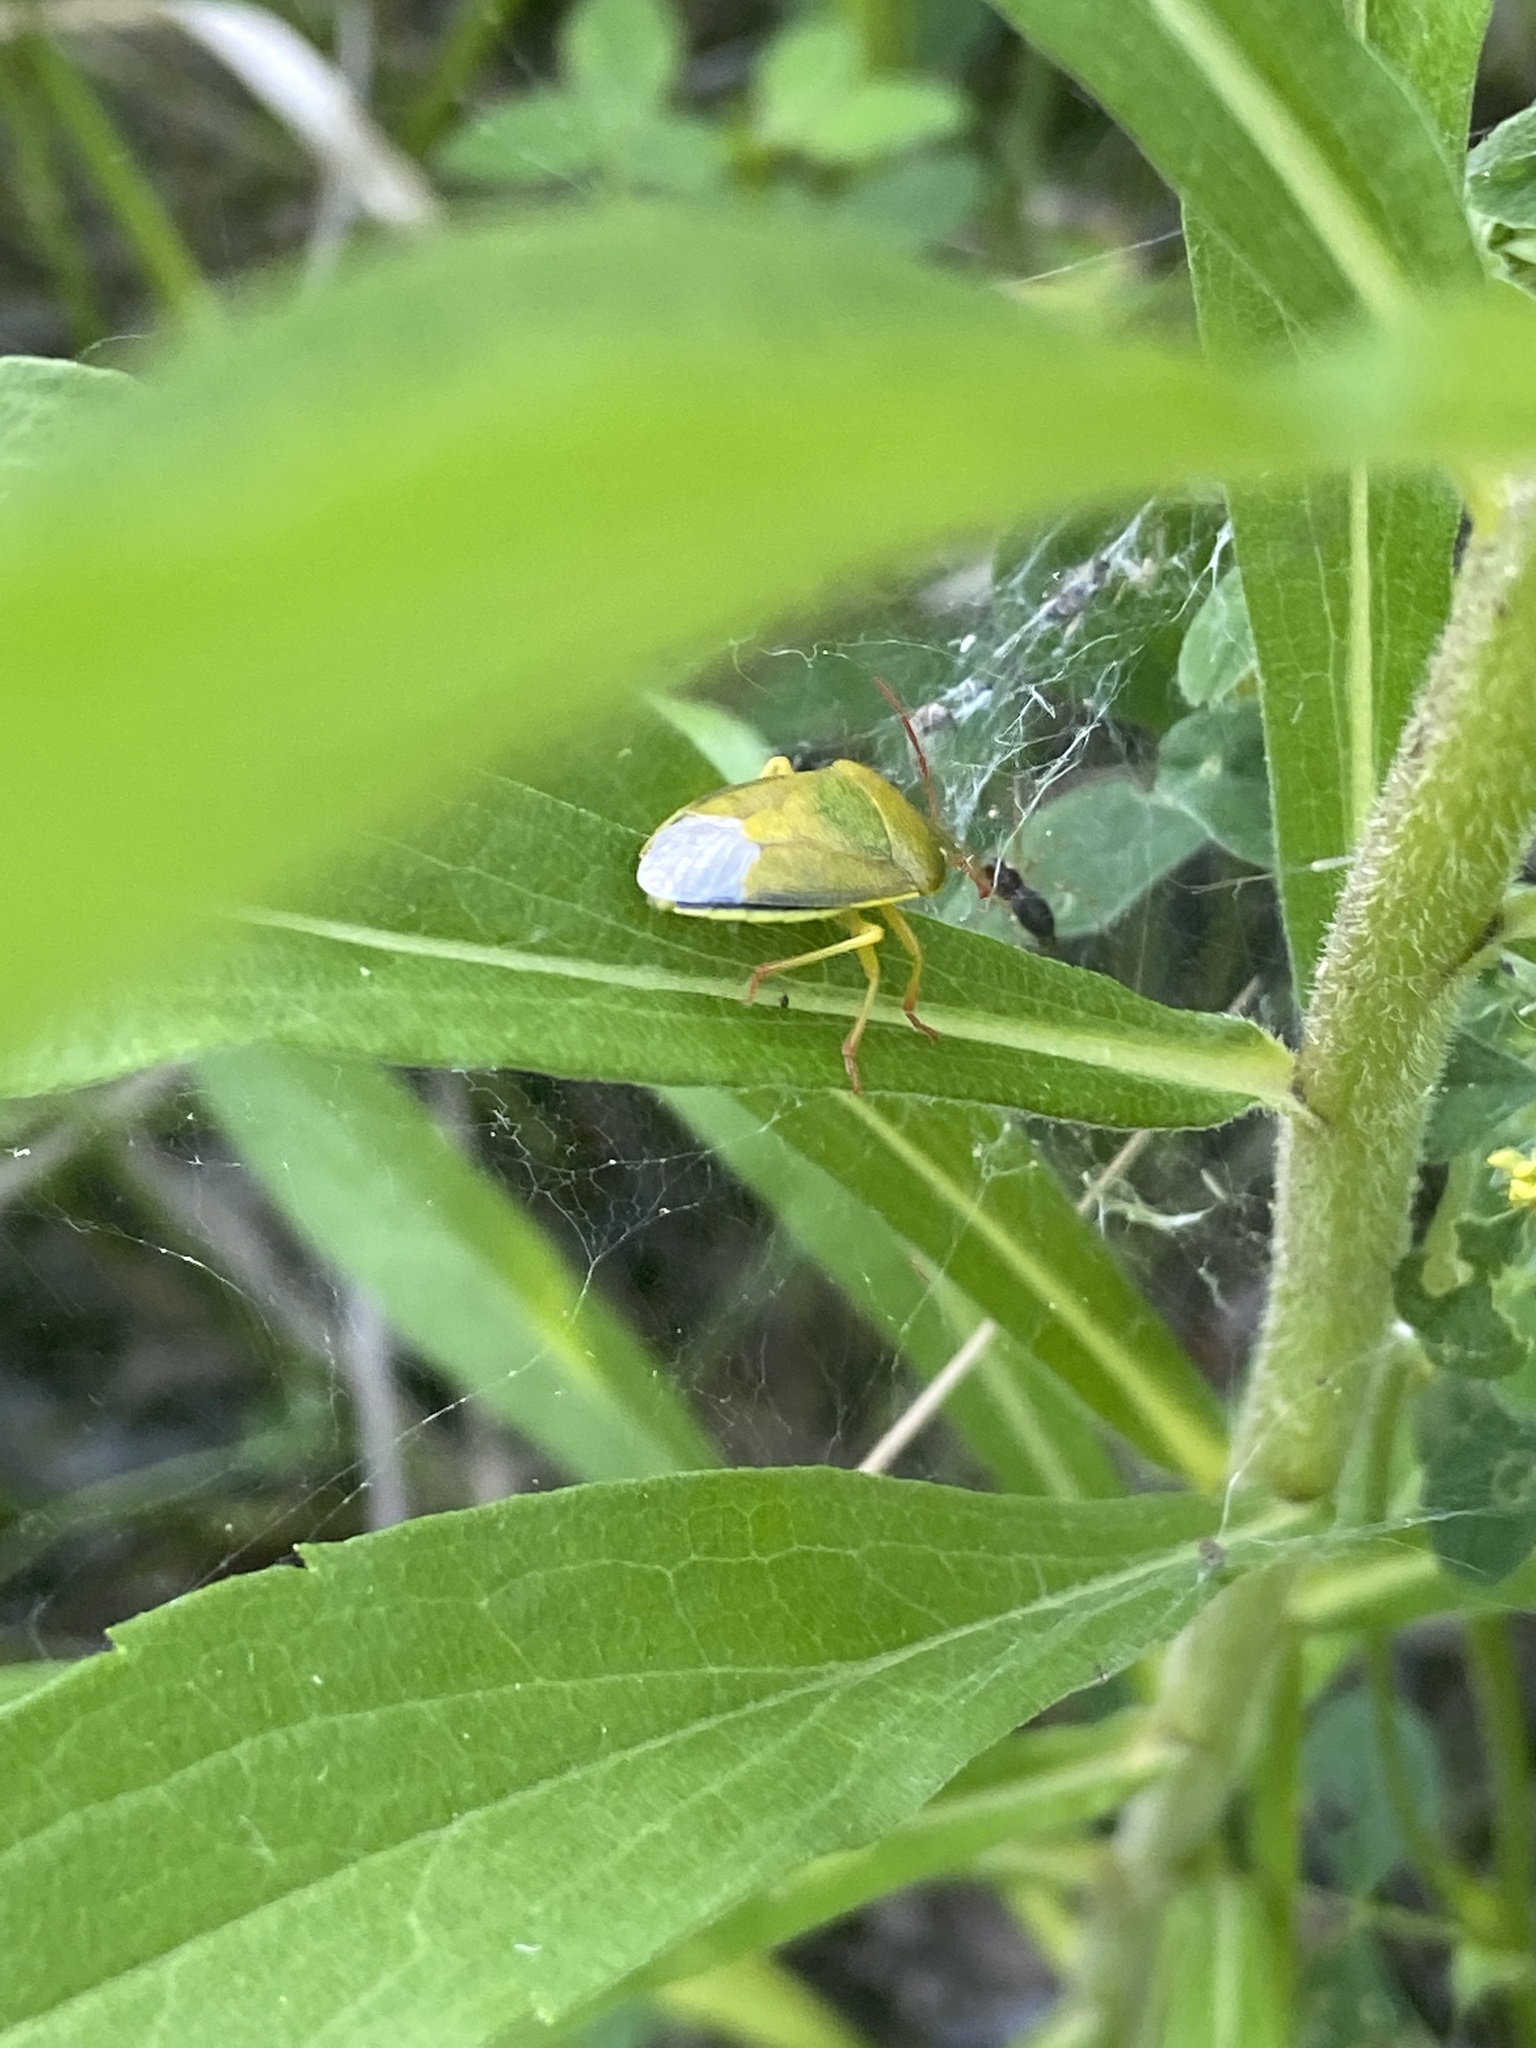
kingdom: Animalia
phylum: Arthropoda
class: Insecta
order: Hemiptera
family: Pentatomidae
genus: Piezodorus
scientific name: Piezodorus lituratus
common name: Stink bug
